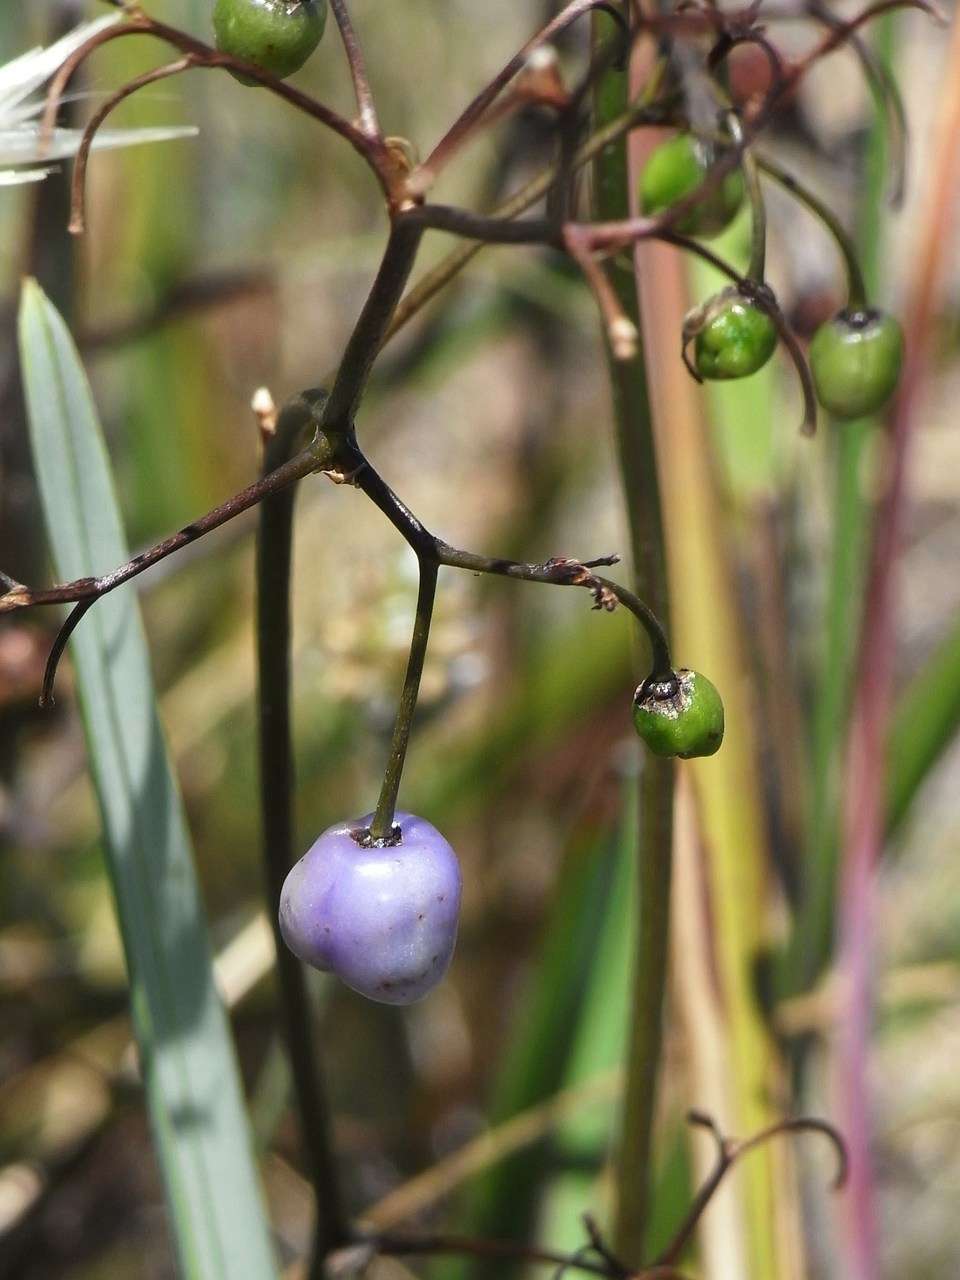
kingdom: Plantae
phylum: Tracheophyta
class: Liliopsida
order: Asparagales
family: Asphodelaceae
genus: Dianella
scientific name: Dianella revoluta
